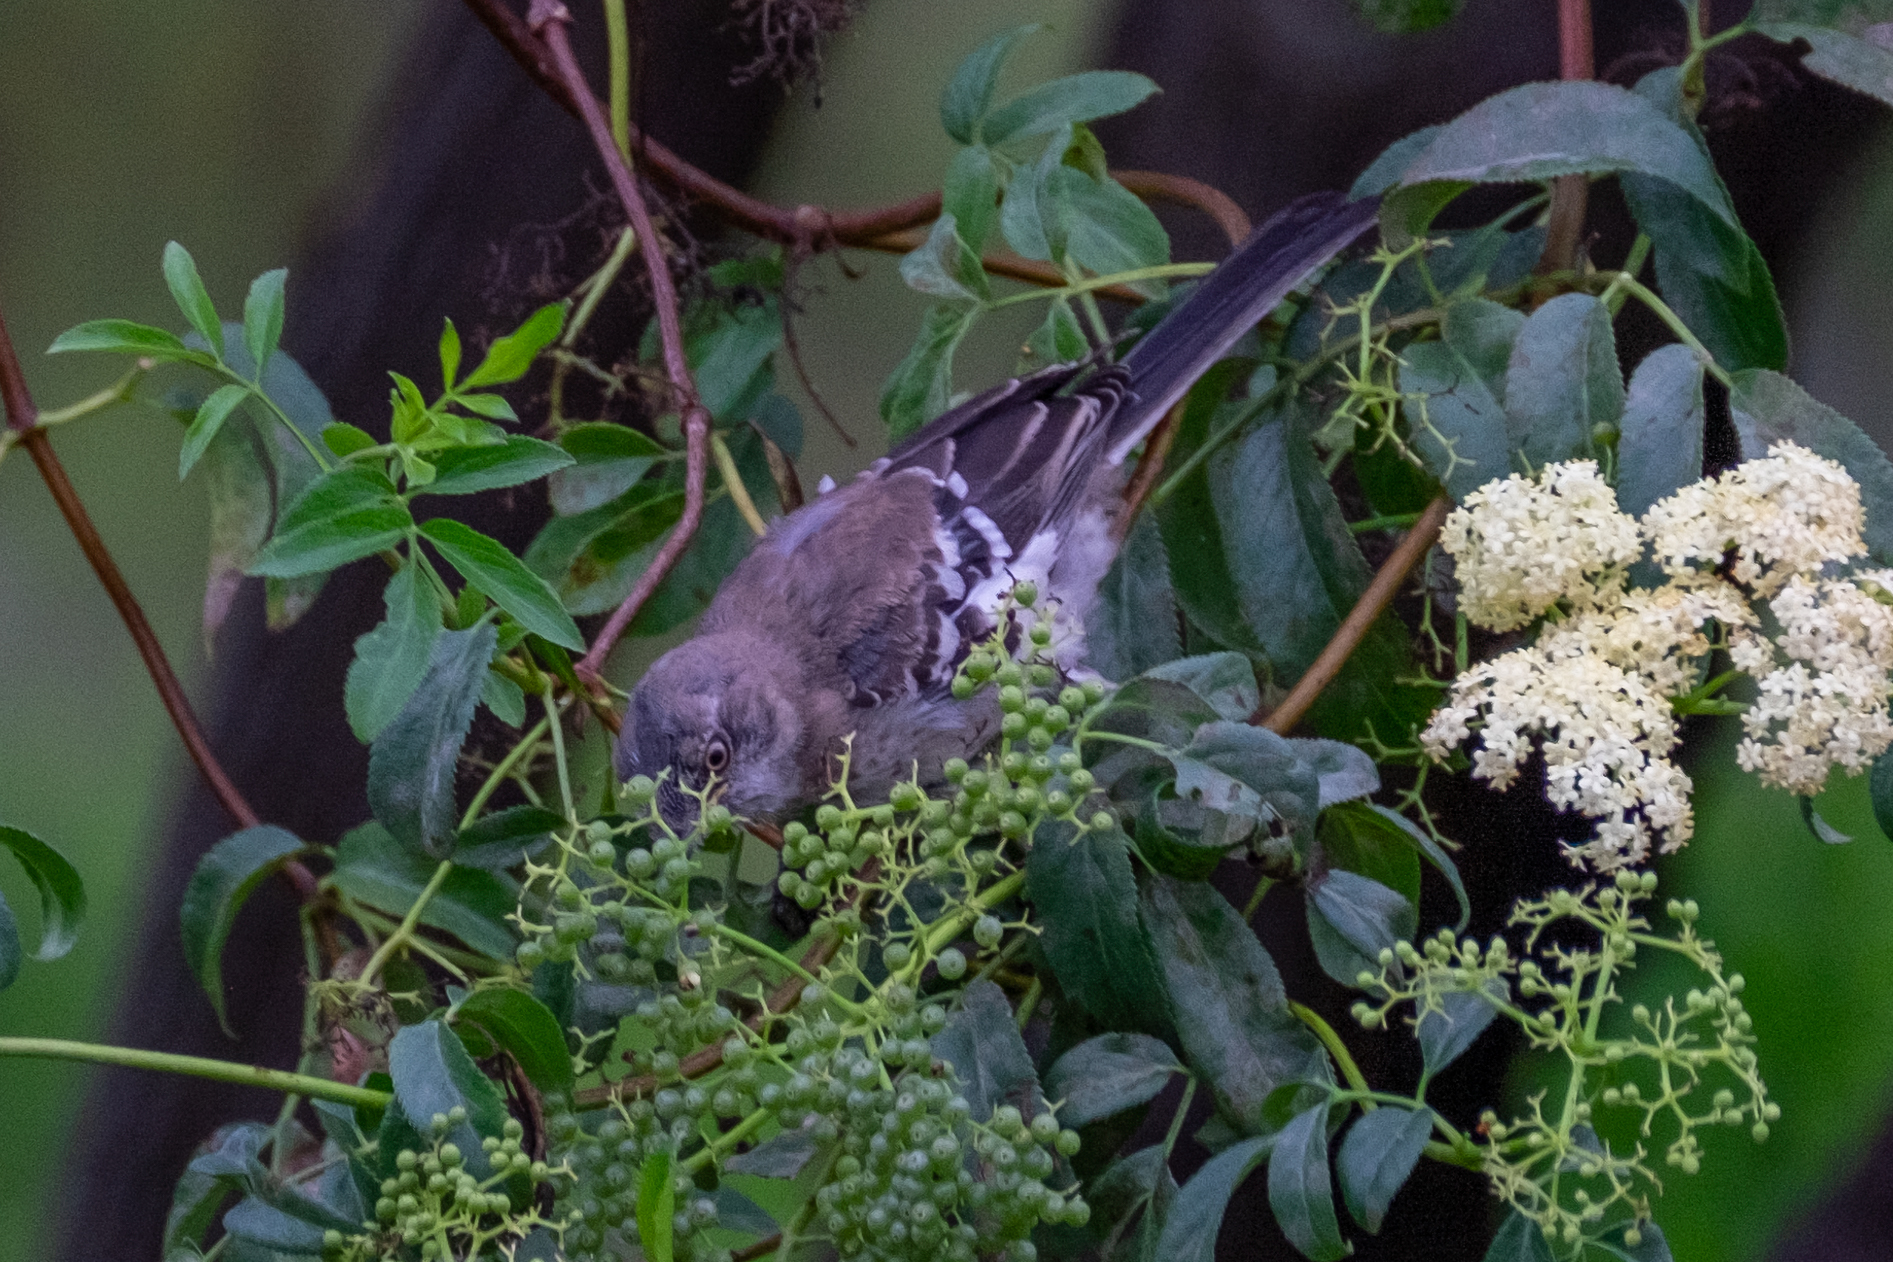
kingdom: Animalia
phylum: Chordata
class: Aves
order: Passeriformes
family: Mimidae
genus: Mimus
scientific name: Mimus polyglottos
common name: Northern mockingbird
